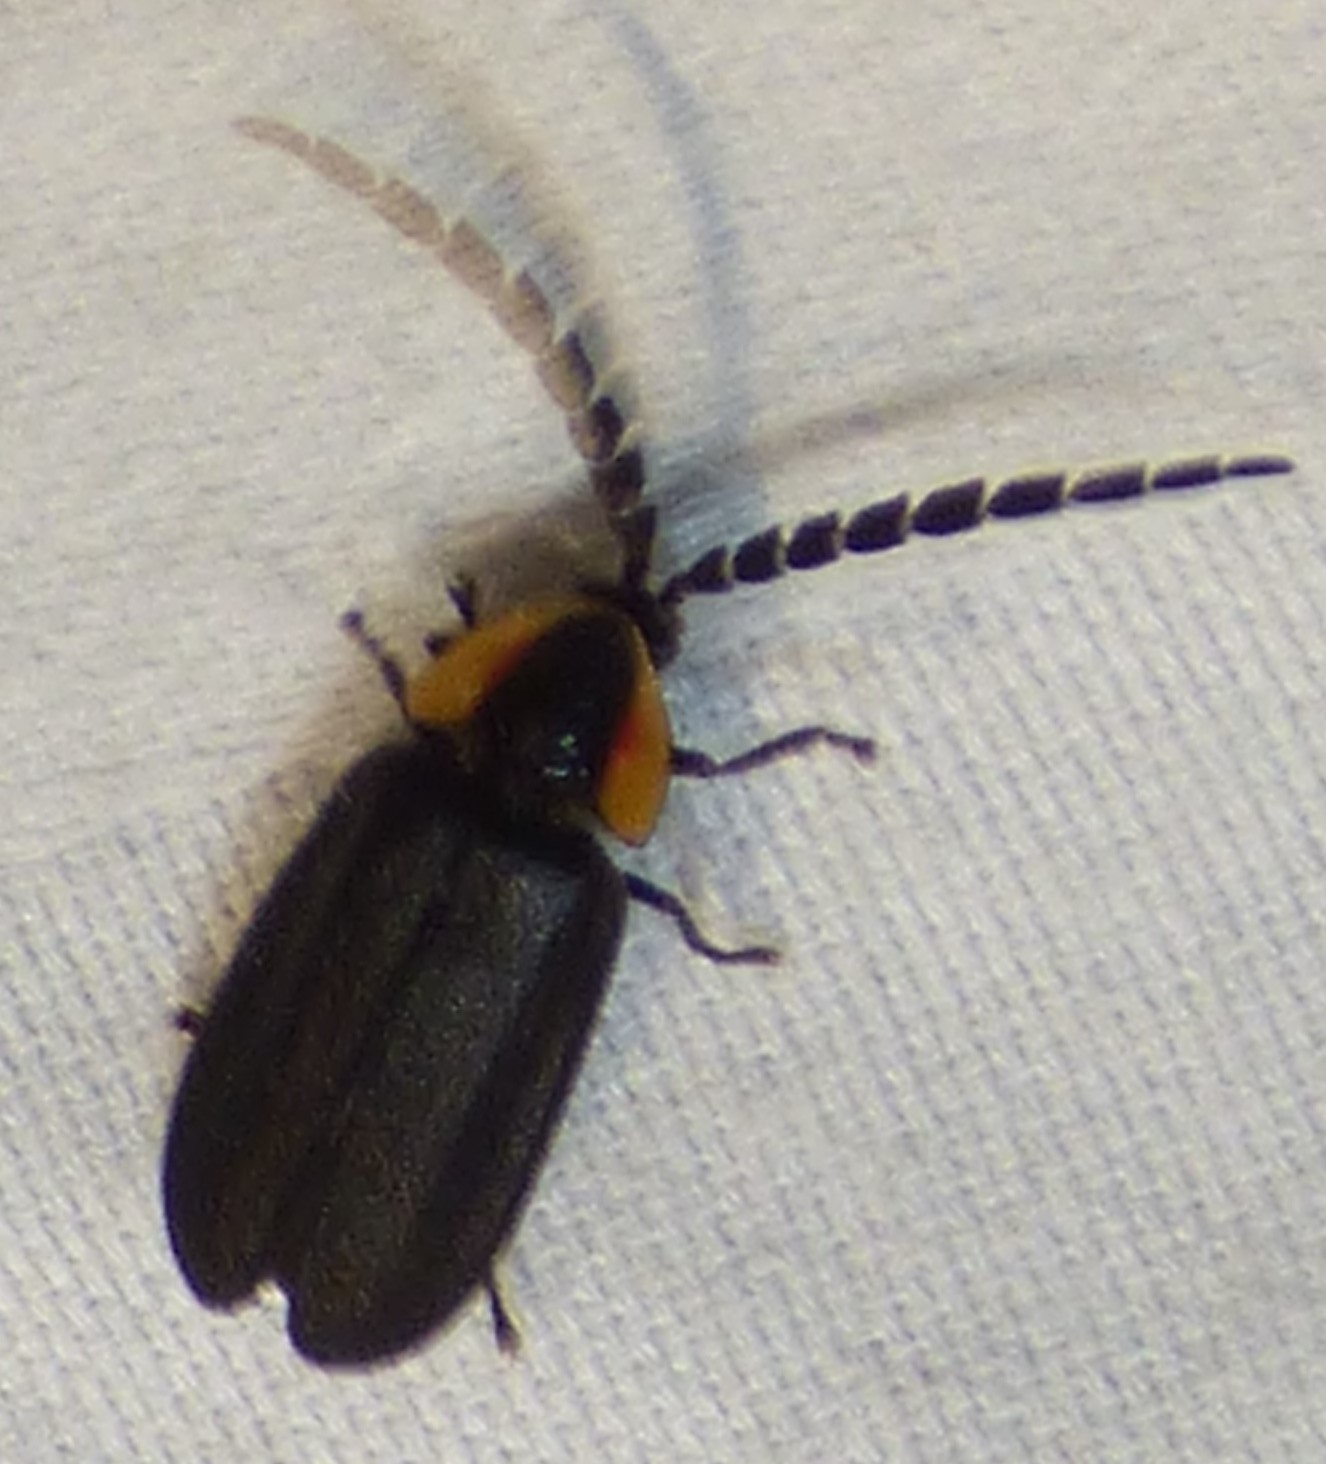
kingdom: Animalia
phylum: Arthropoda
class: Insecta
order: Coleoptera
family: Lampyridae
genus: Lucidota
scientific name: Lucidota atra
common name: Black firefly
